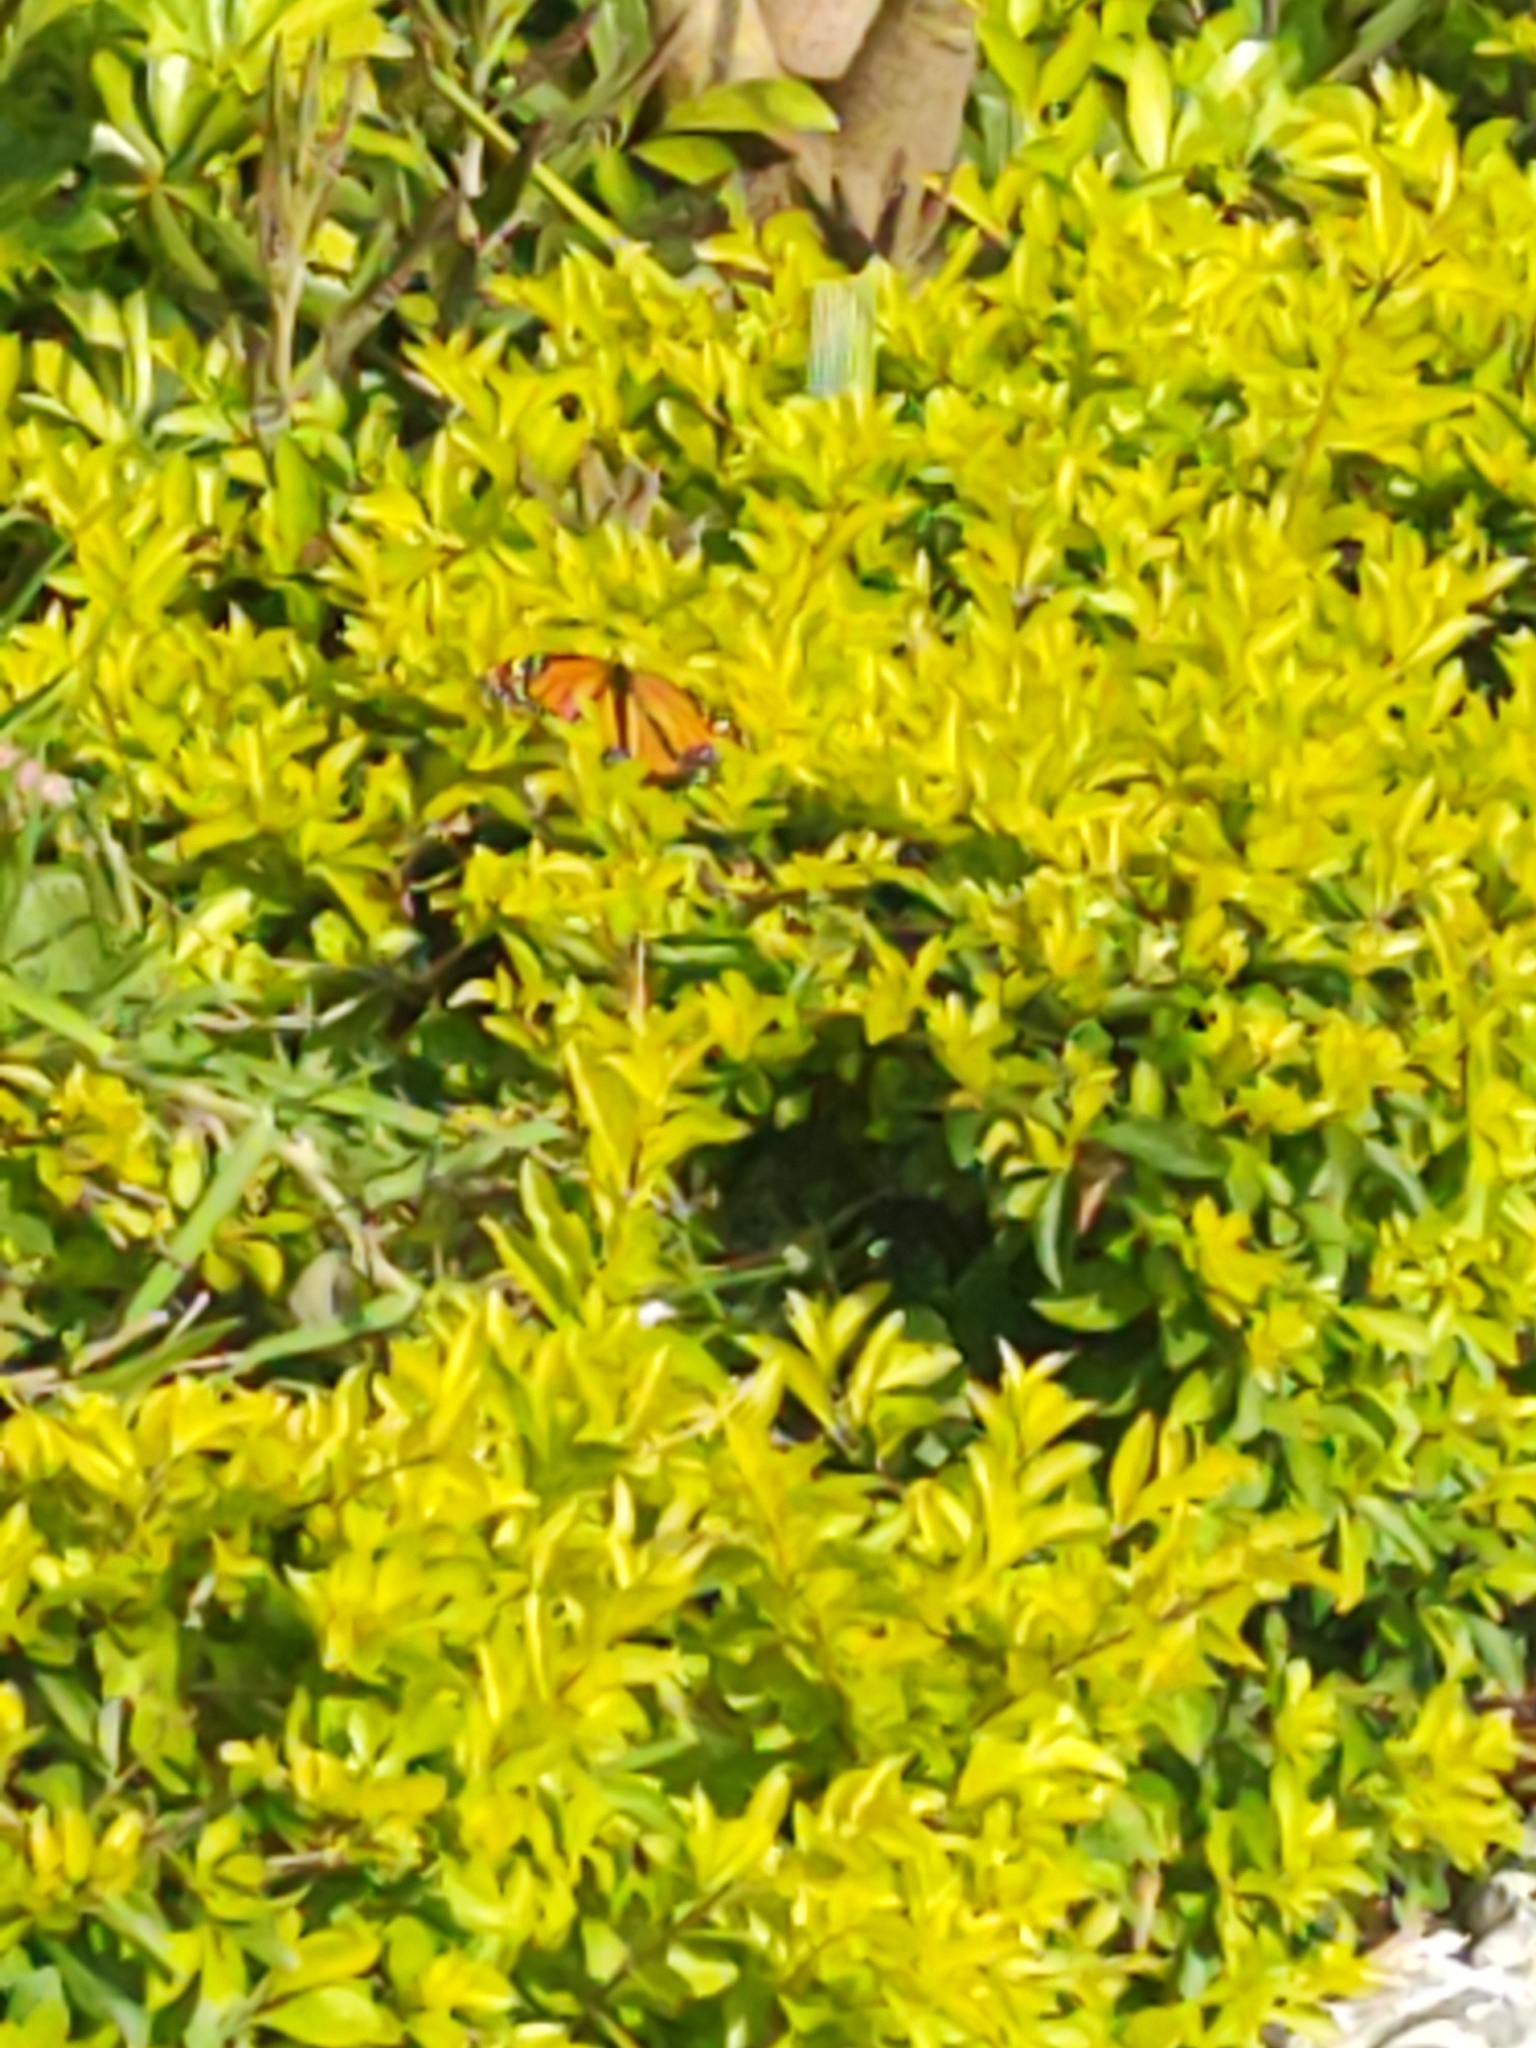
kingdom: Animalia
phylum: Arthropoda
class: Insecta
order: Lepidoptera
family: Nymphalidae
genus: Danaus
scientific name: Danaus plexippus
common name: Monarch
